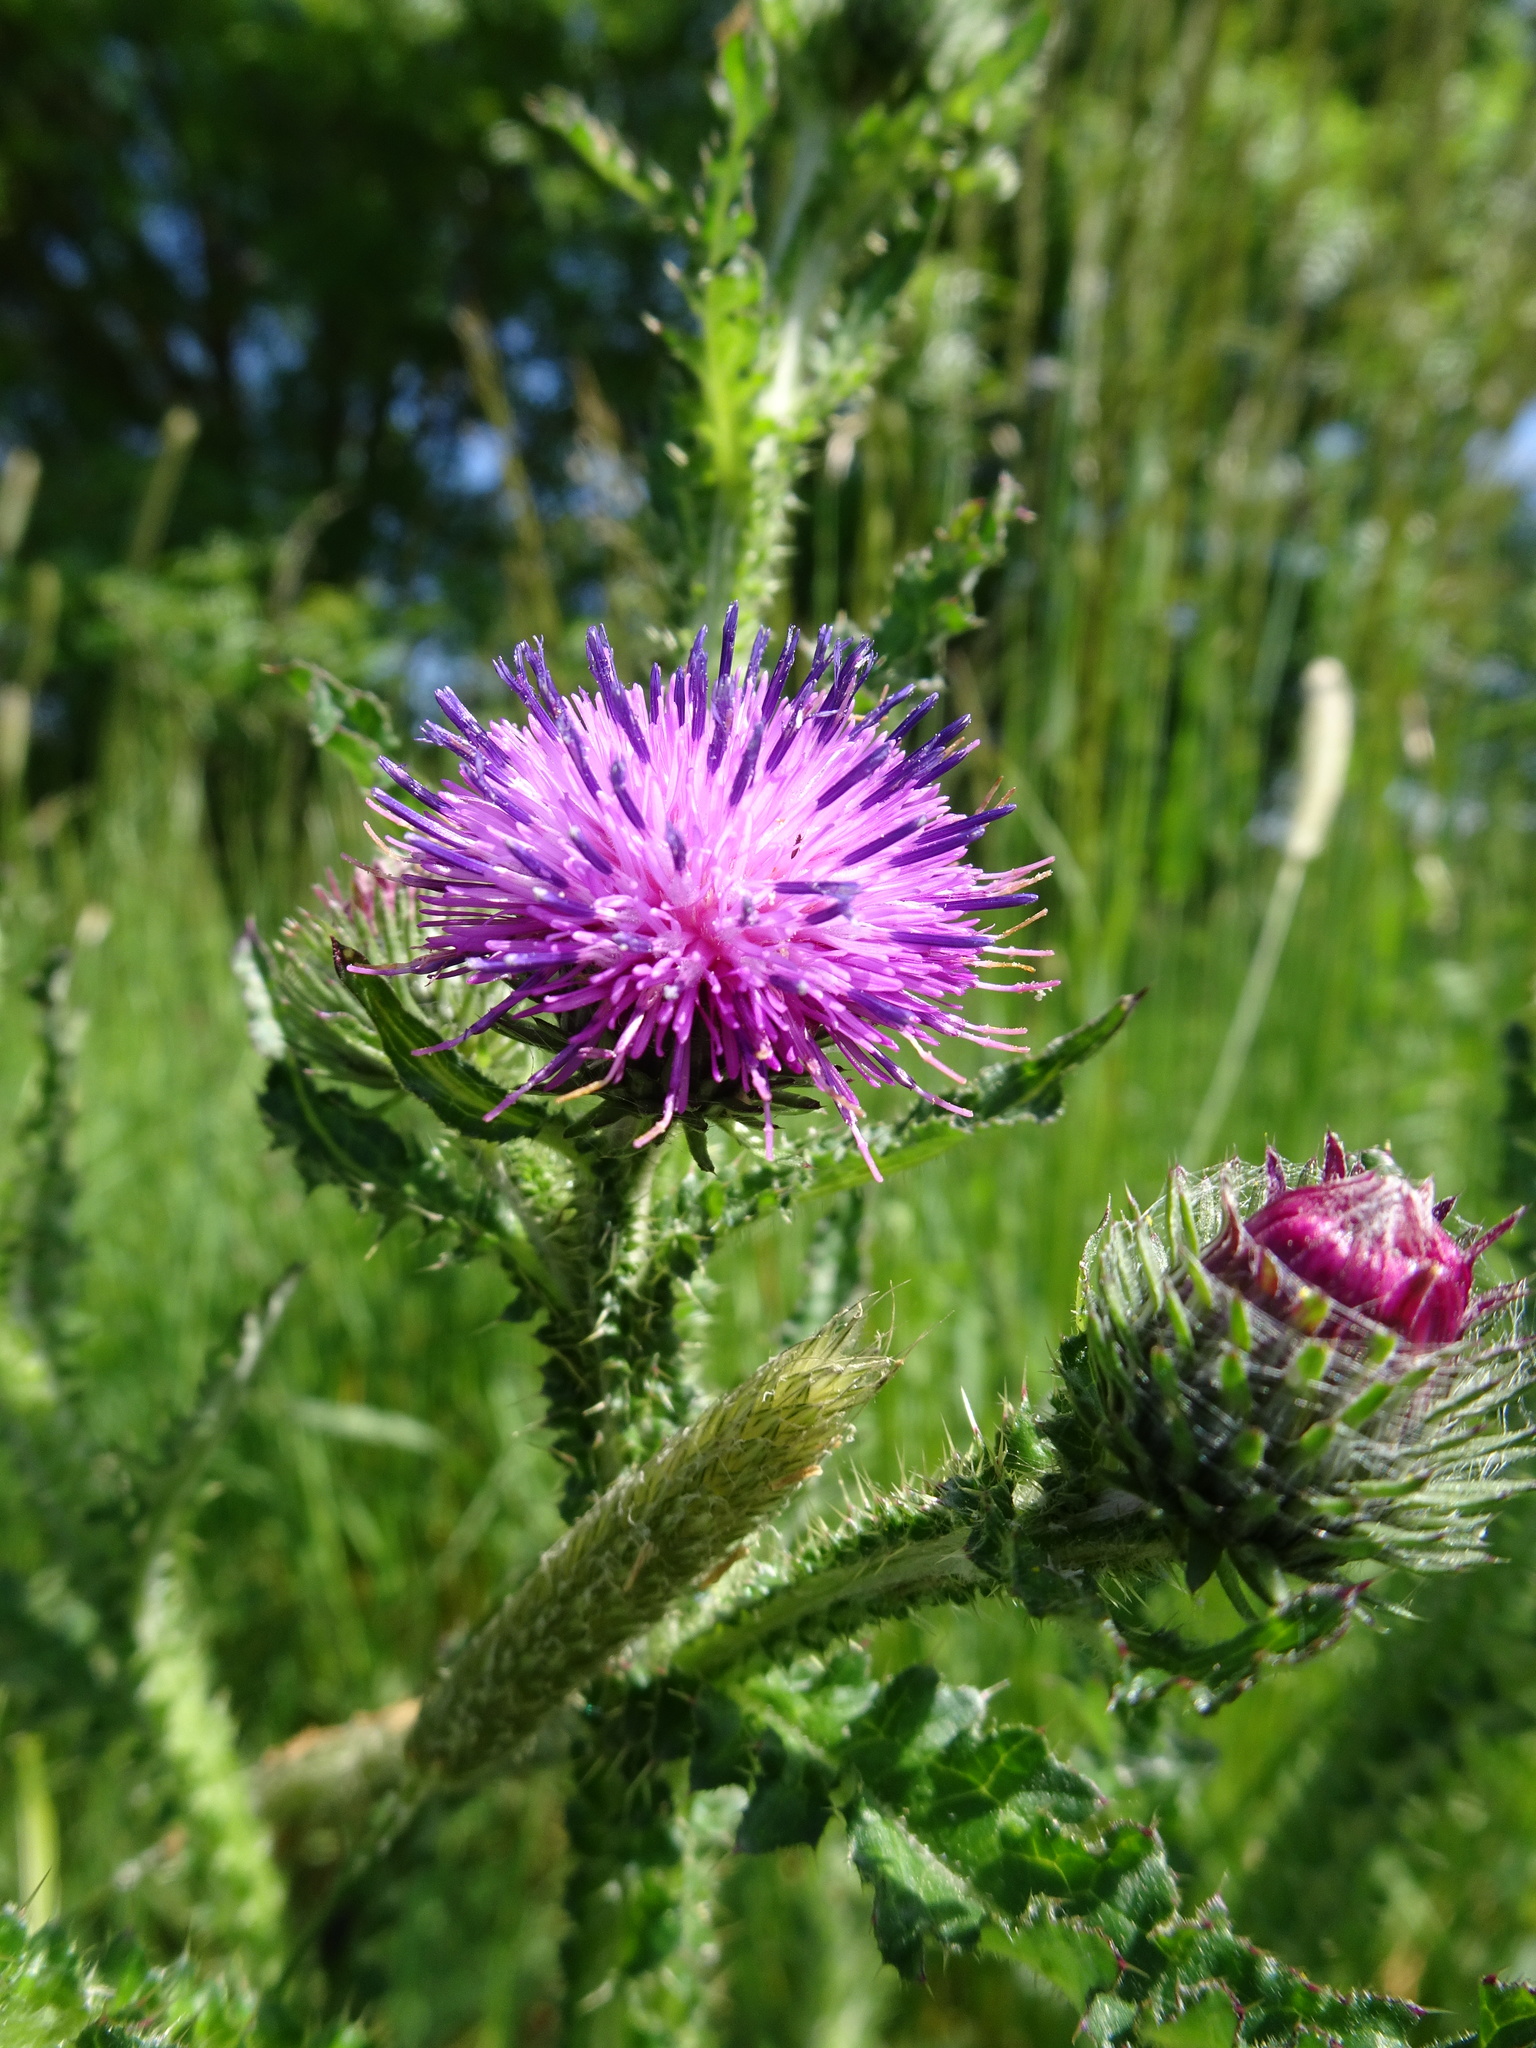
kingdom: Plantae
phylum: Tracheophyta
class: Magnoliopsida
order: Asterales
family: Asteraceae
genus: Carduus
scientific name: Carduus crispus
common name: Welted thistle
